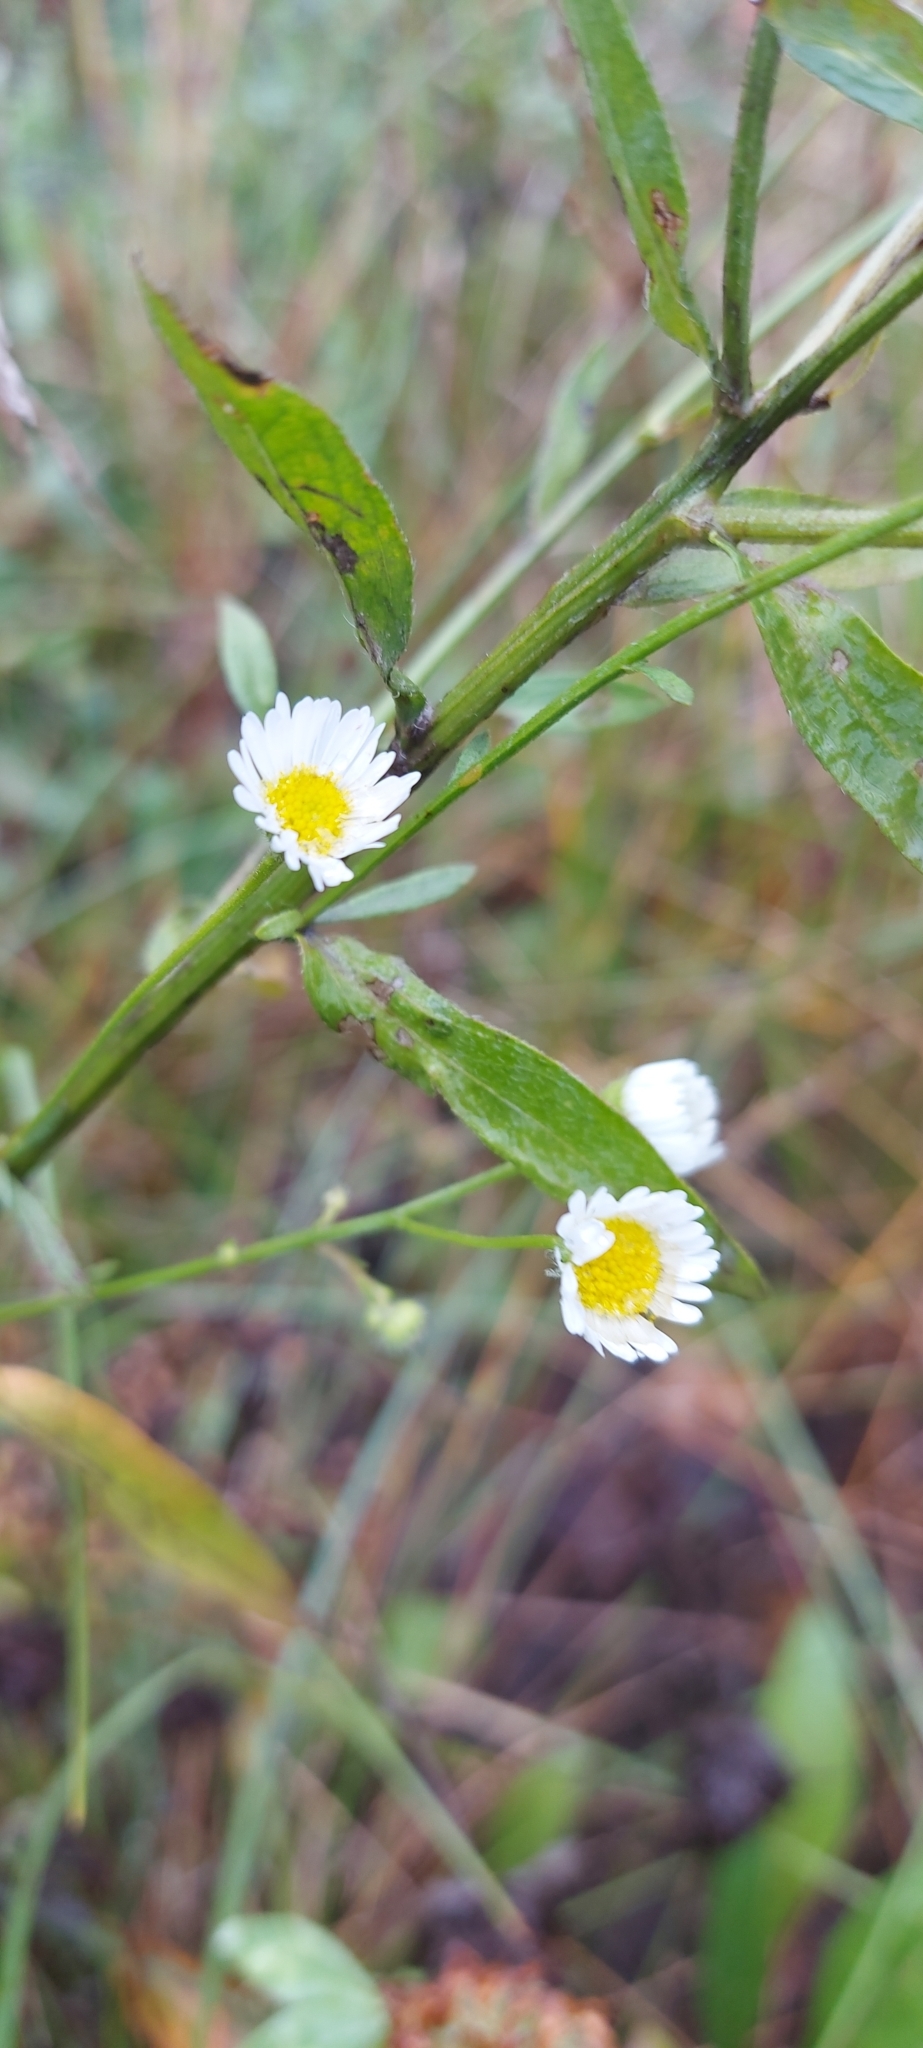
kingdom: Plantae
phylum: Tracheophyta
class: Magnoliopsida
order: Asterales
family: Asteraceae
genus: Erigeron
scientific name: Erigeron strigosus
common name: Common eastern fleabane
